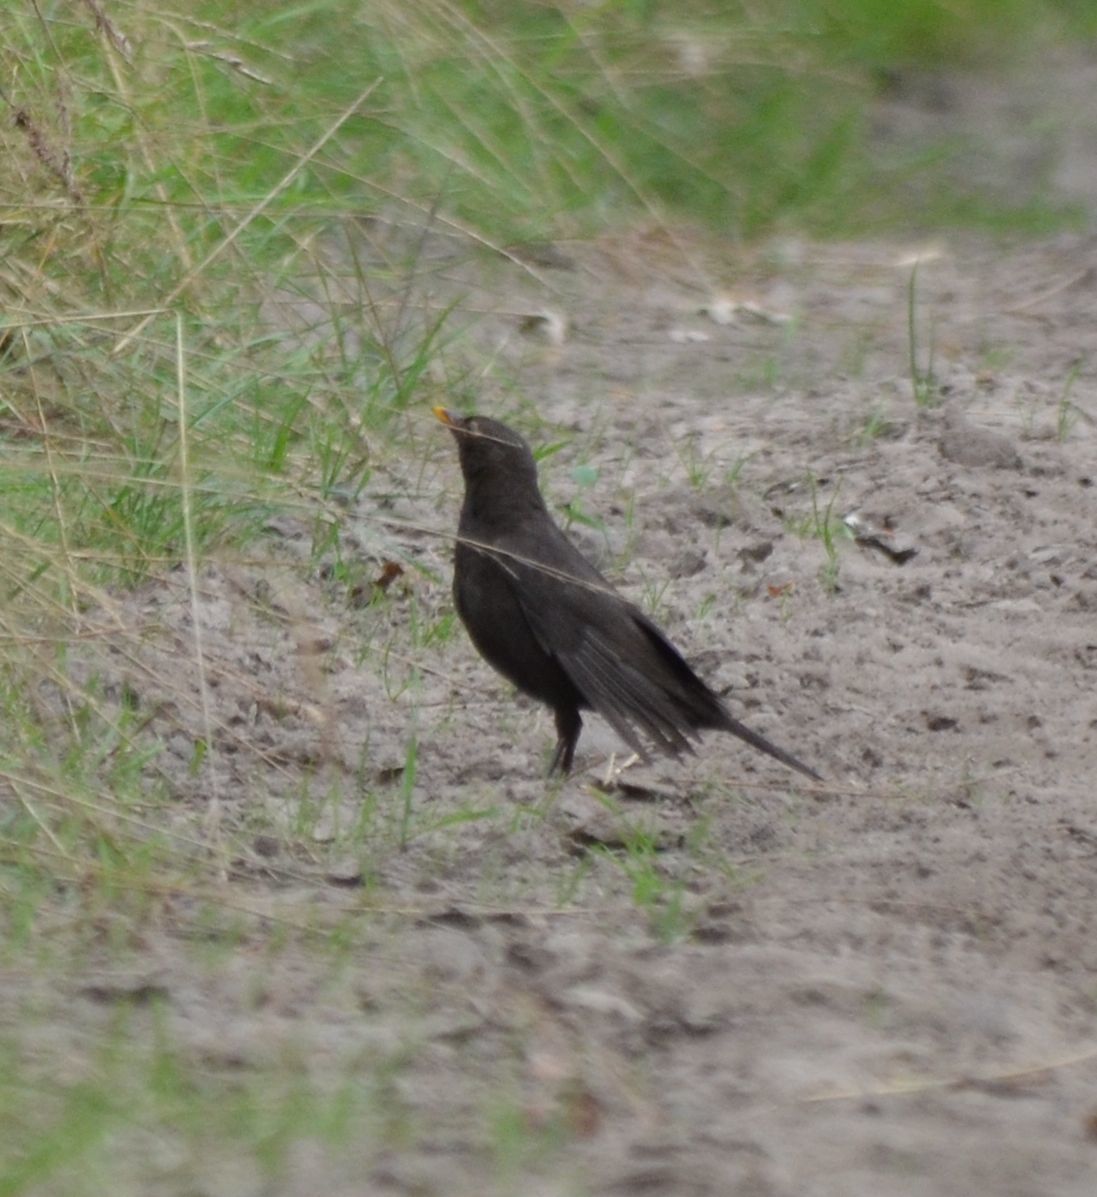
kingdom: Animalia
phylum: Chordata
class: Aves
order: Passeriformes
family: Turdidae
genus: Turdus
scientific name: Turdus merula
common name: Common blackbird
